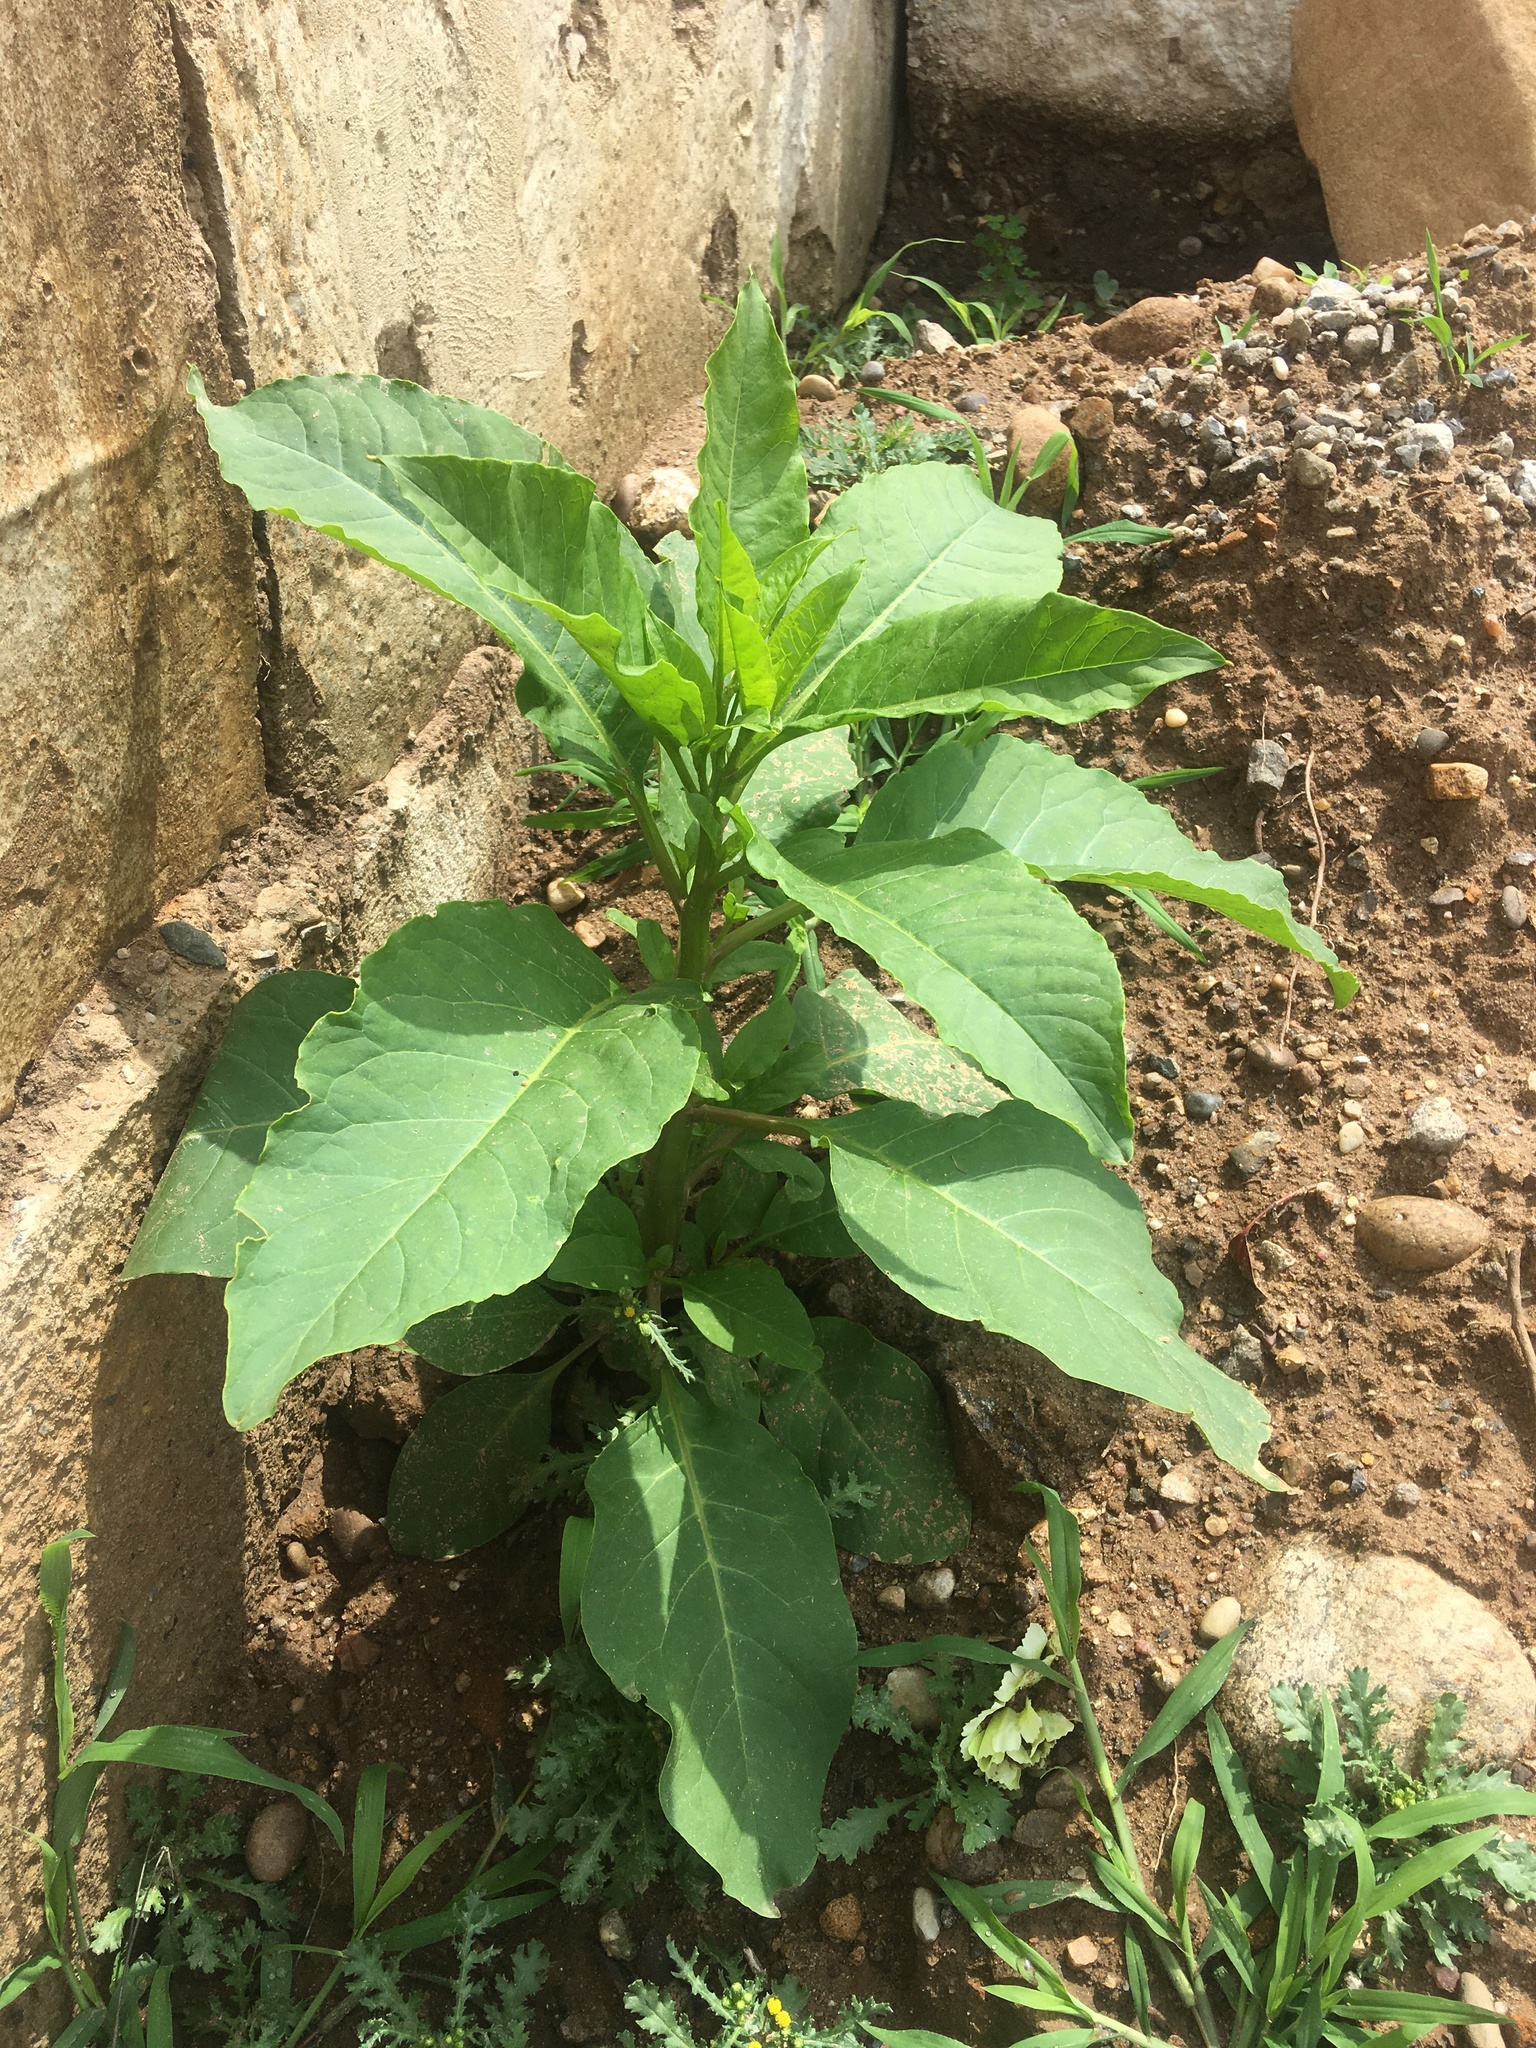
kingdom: Plantae
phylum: Tracheophyta
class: Magnoliopsida
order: Caryophyllales
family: Phytolaccaceae
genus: Phytolacca
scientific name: Phytolacca americana
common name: American pokeweed
